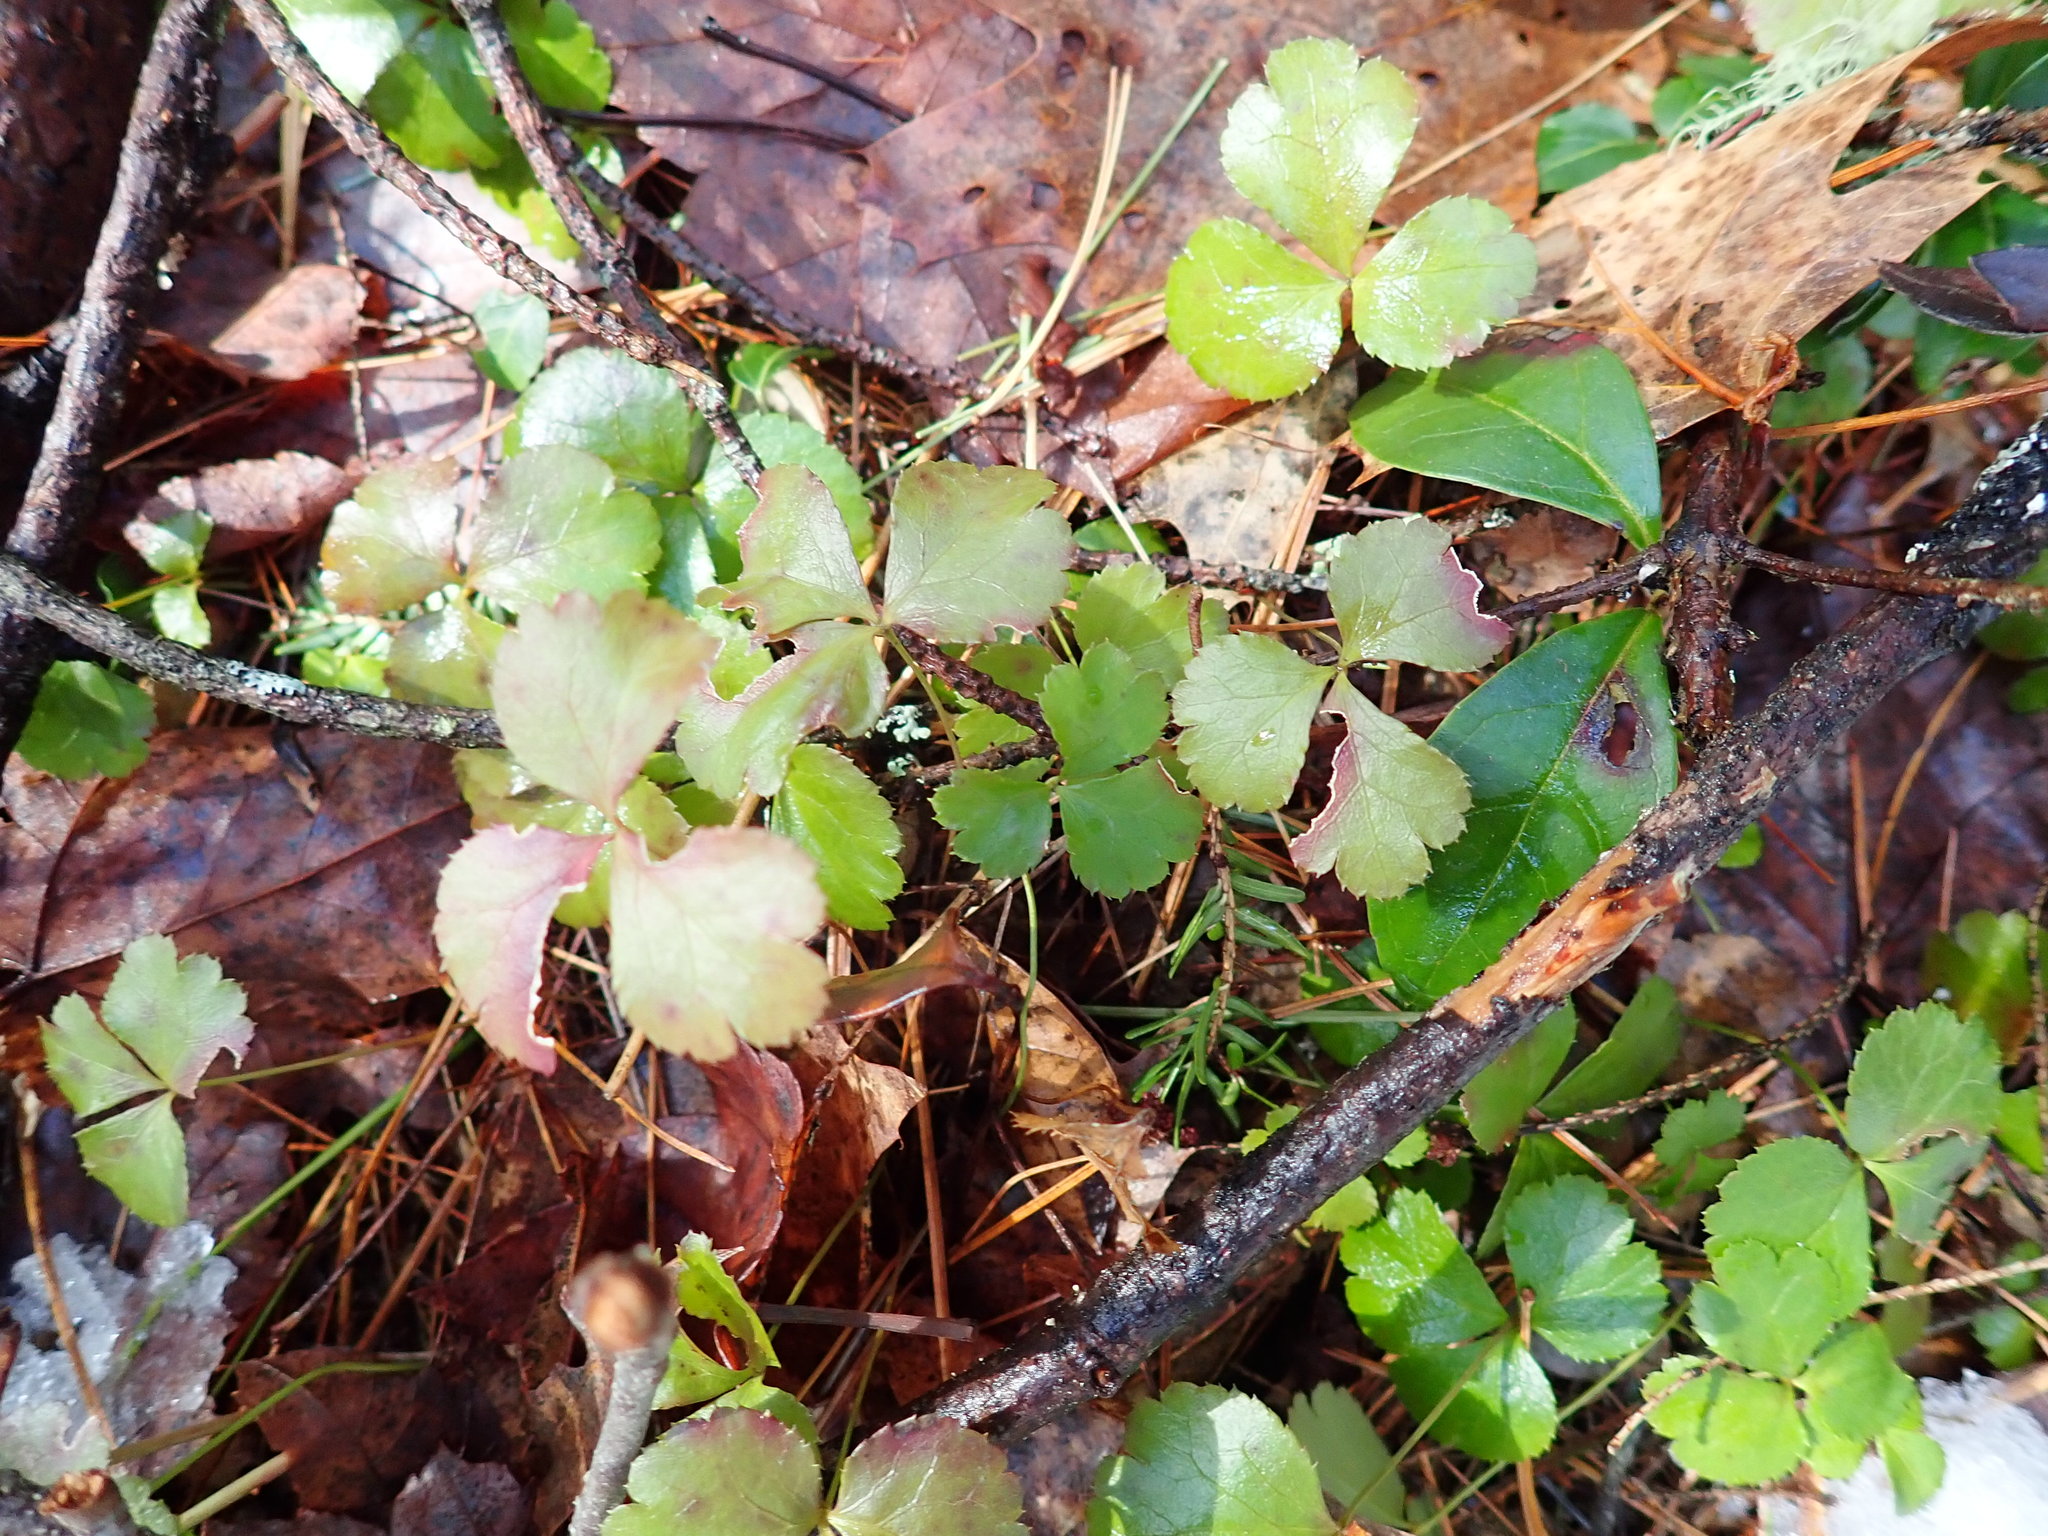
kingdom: Plantae
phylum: Tracheophyta
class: Magnoliopsida
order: Ranunculales
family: Ranunculaceae
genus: Coptis
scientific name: Coptis trifolia
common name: Canker-root
